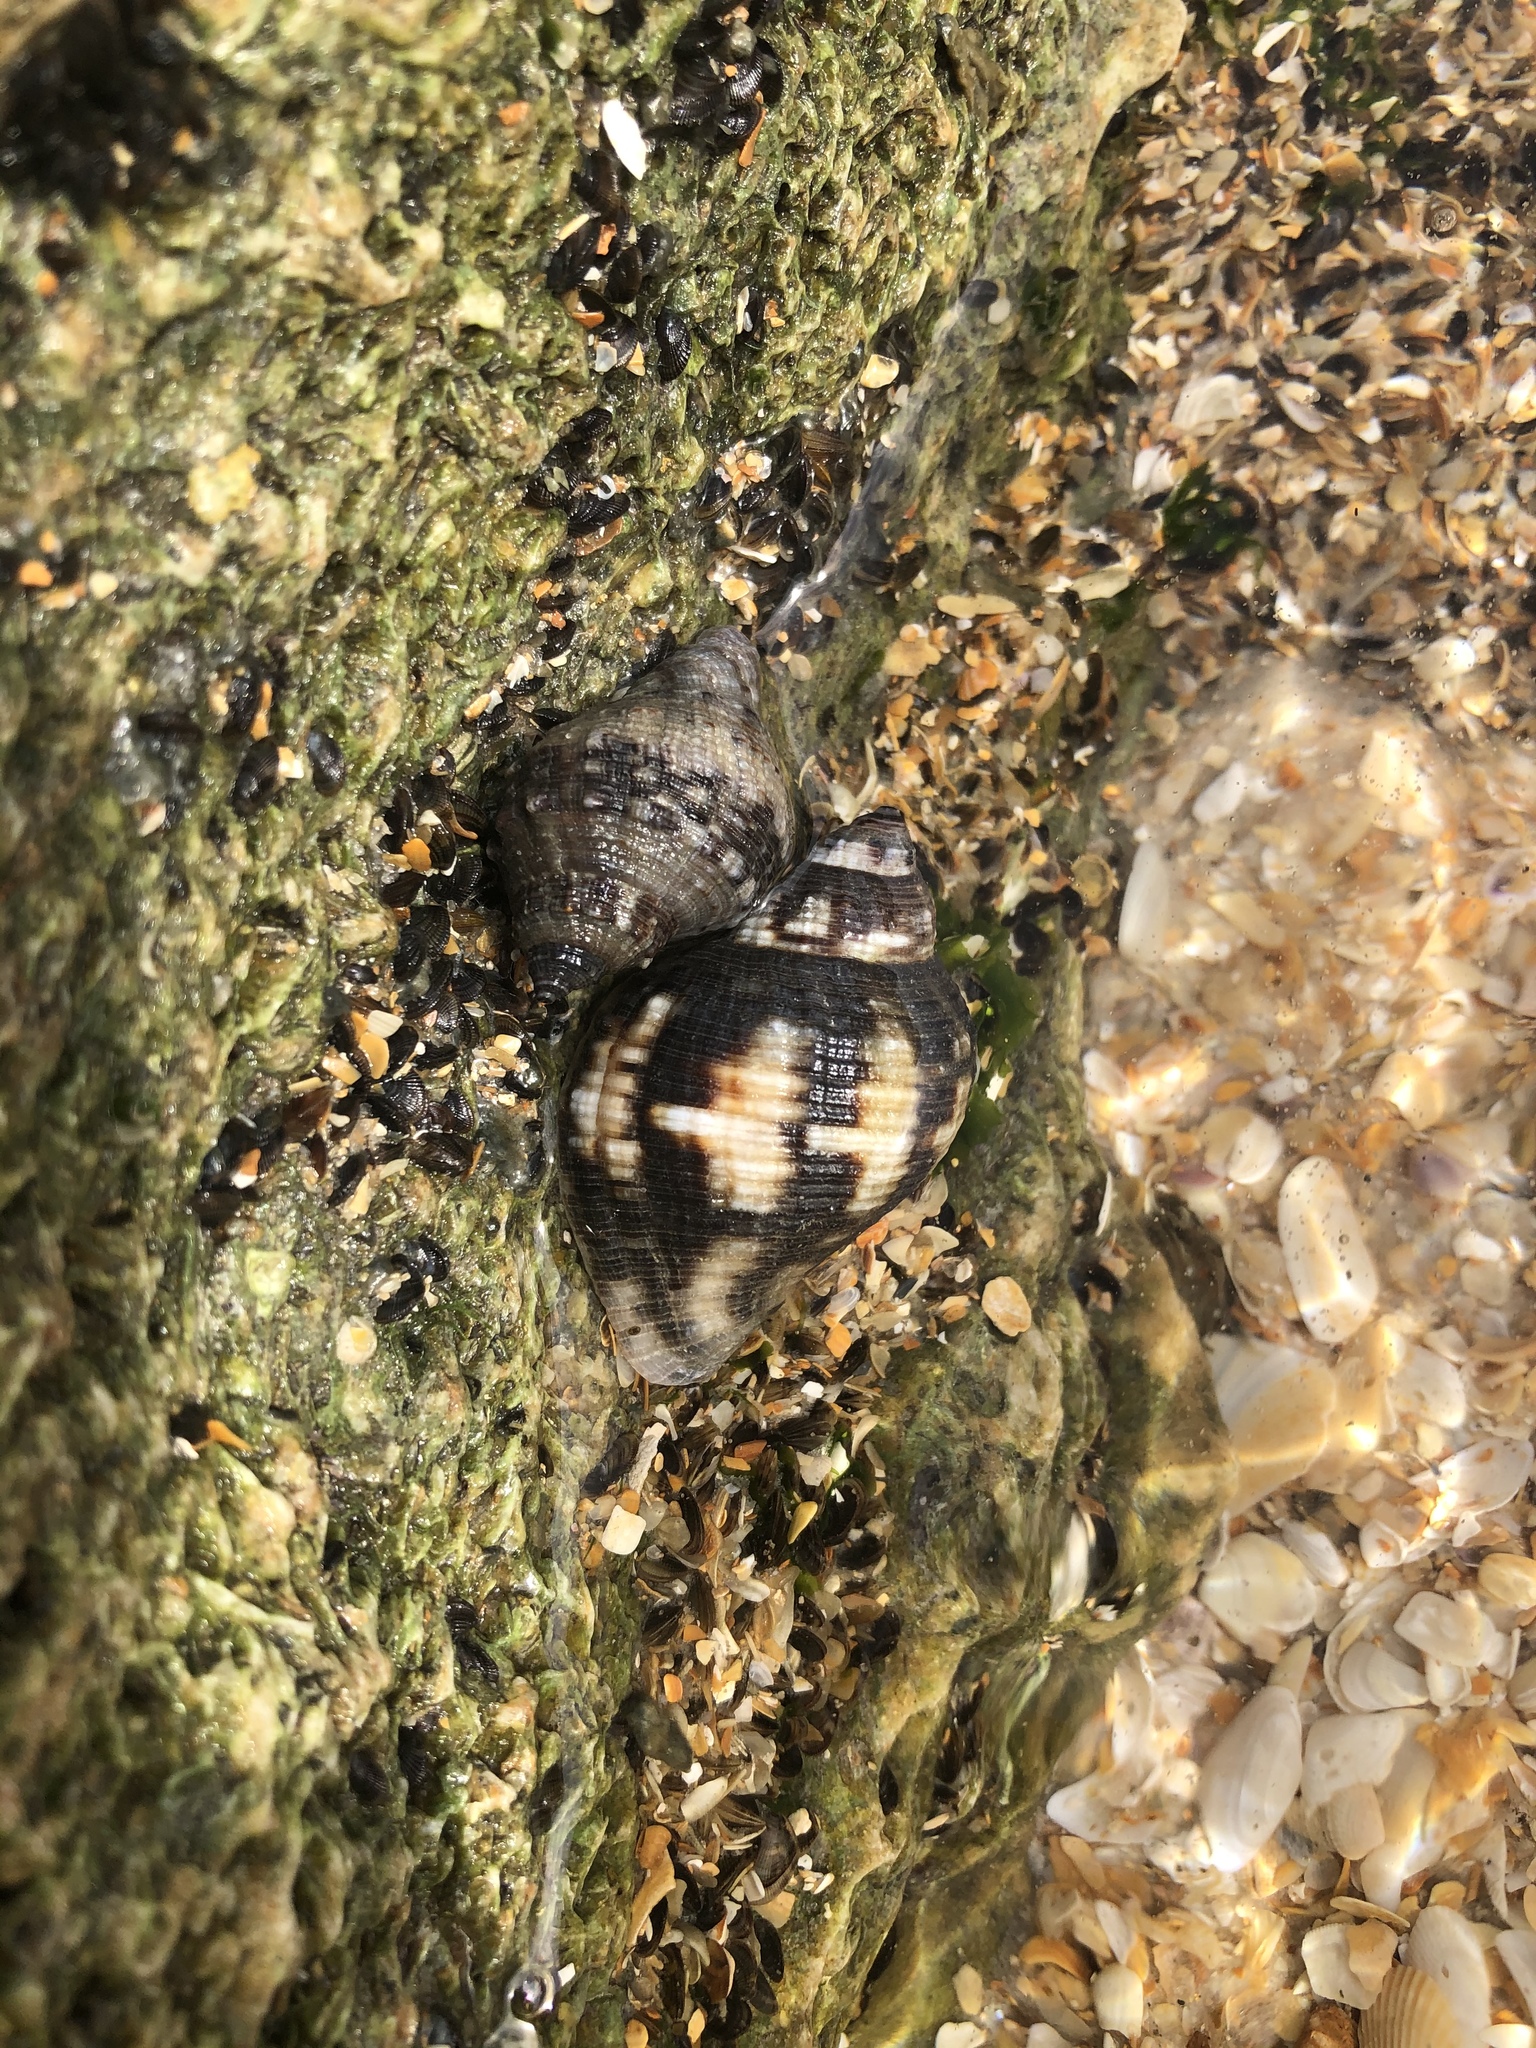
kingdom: Animalia
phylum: Mollusca
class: Gastropoda
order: Neogastropoda
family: Muricidae
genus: Stramonita
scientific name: Stramonita floridana
